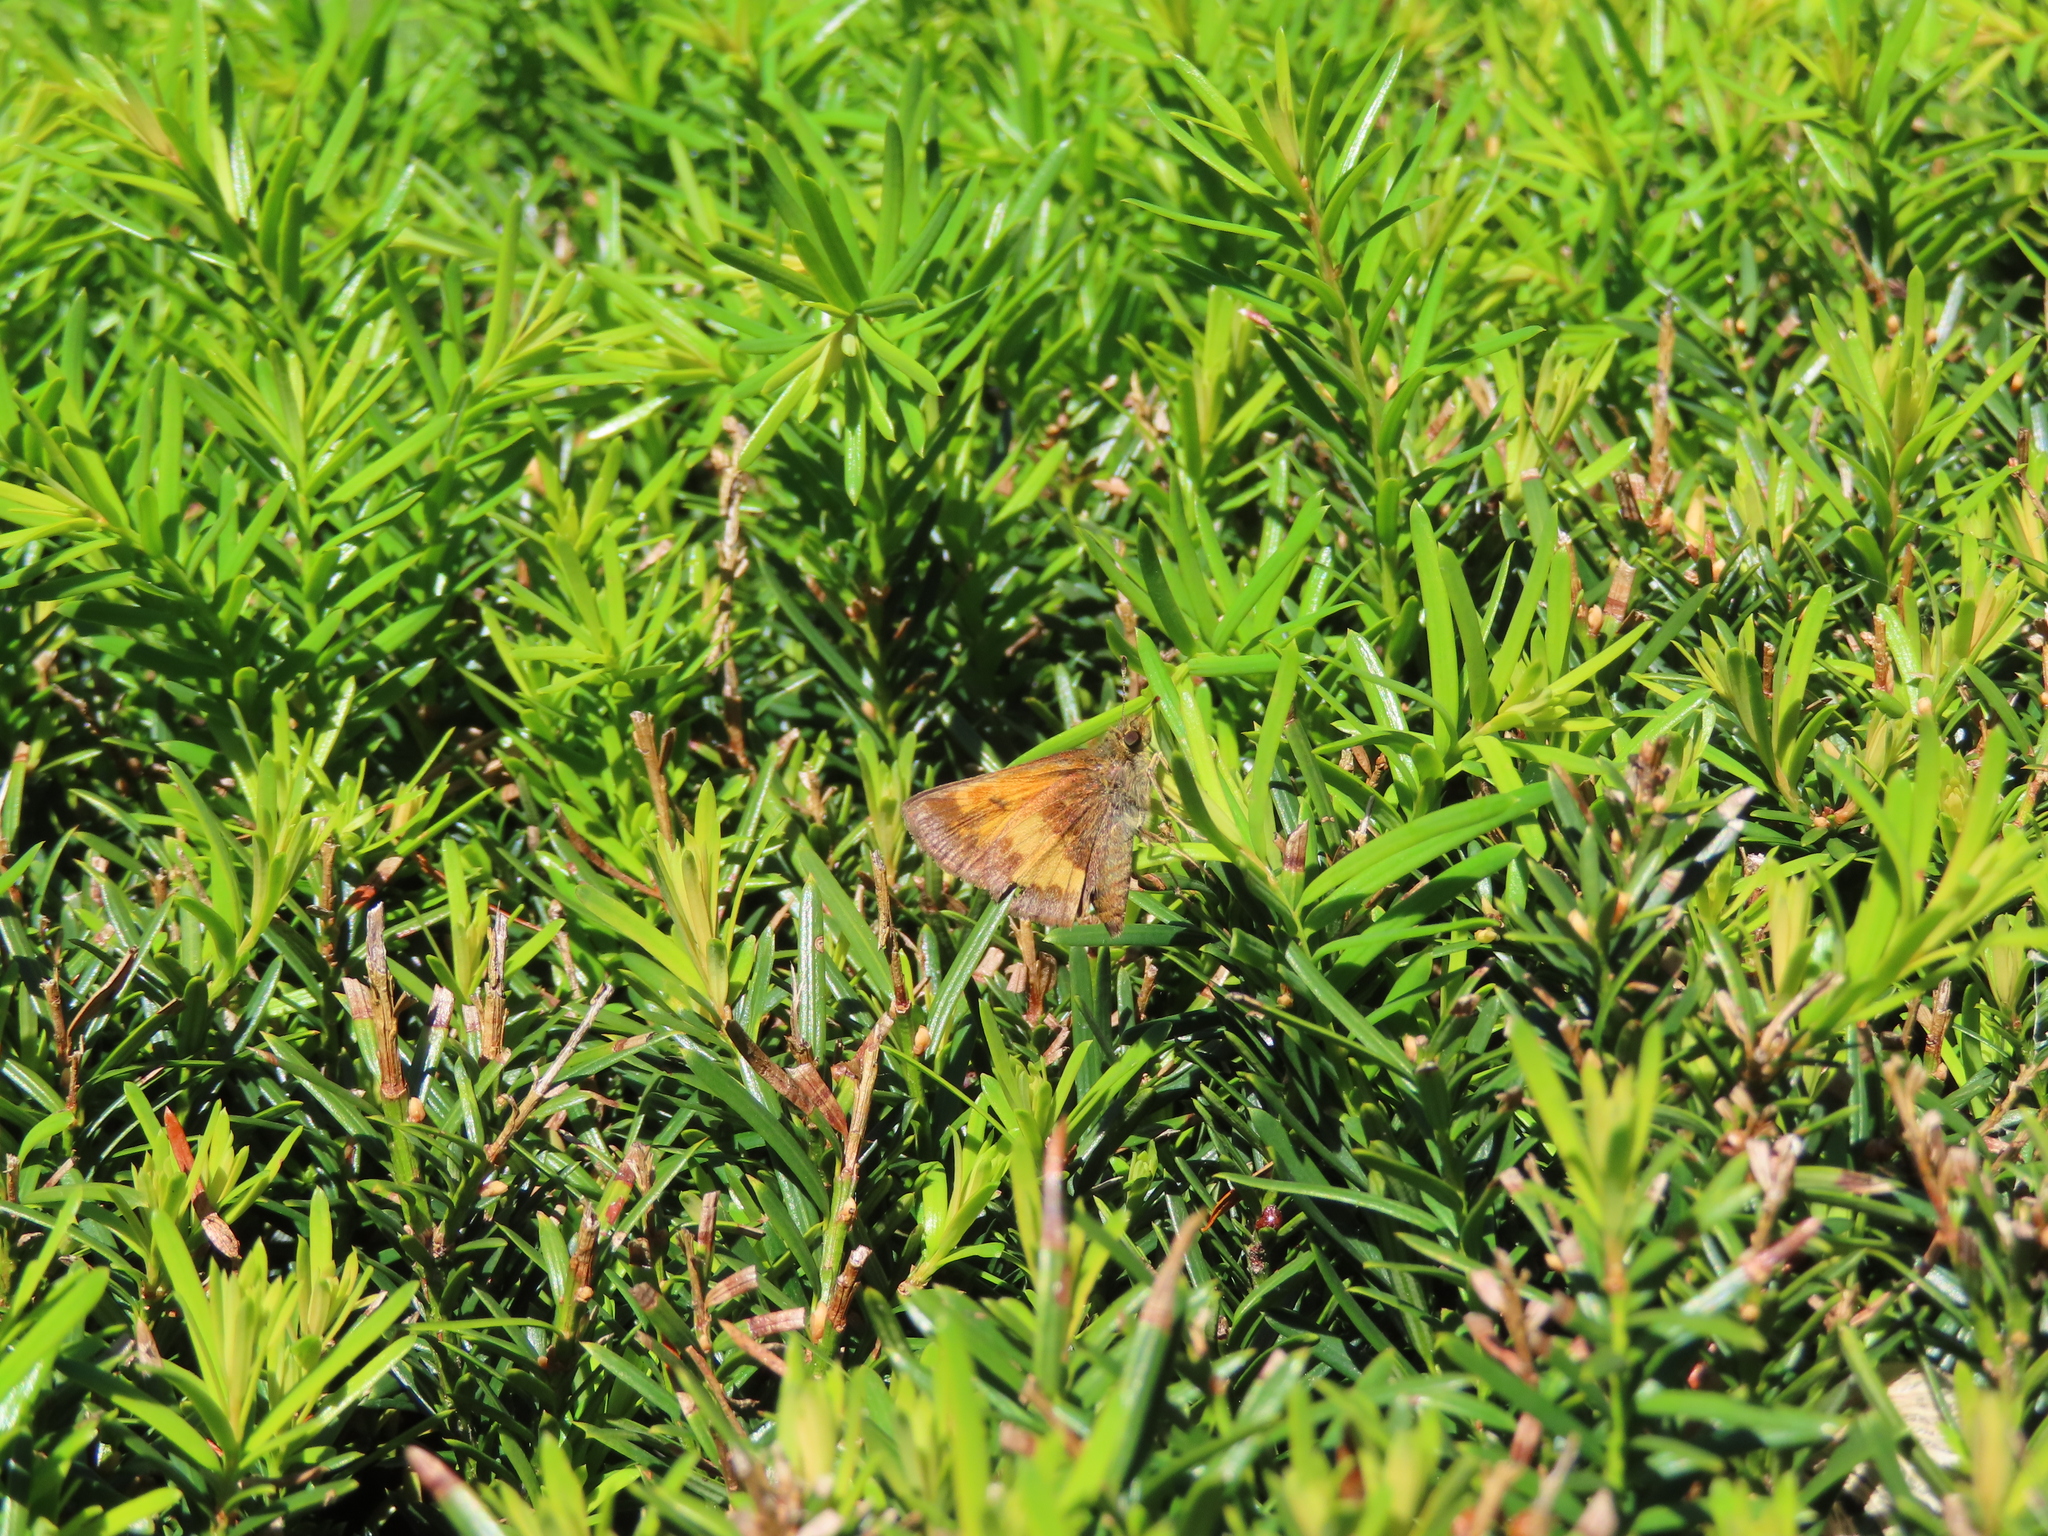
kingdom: Animalia
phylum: Arthropoda
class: Insecta
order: Lepidoptera
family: Hesperiidae
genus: Lon
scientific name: Lon hobomok
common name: Hobomok skipper
